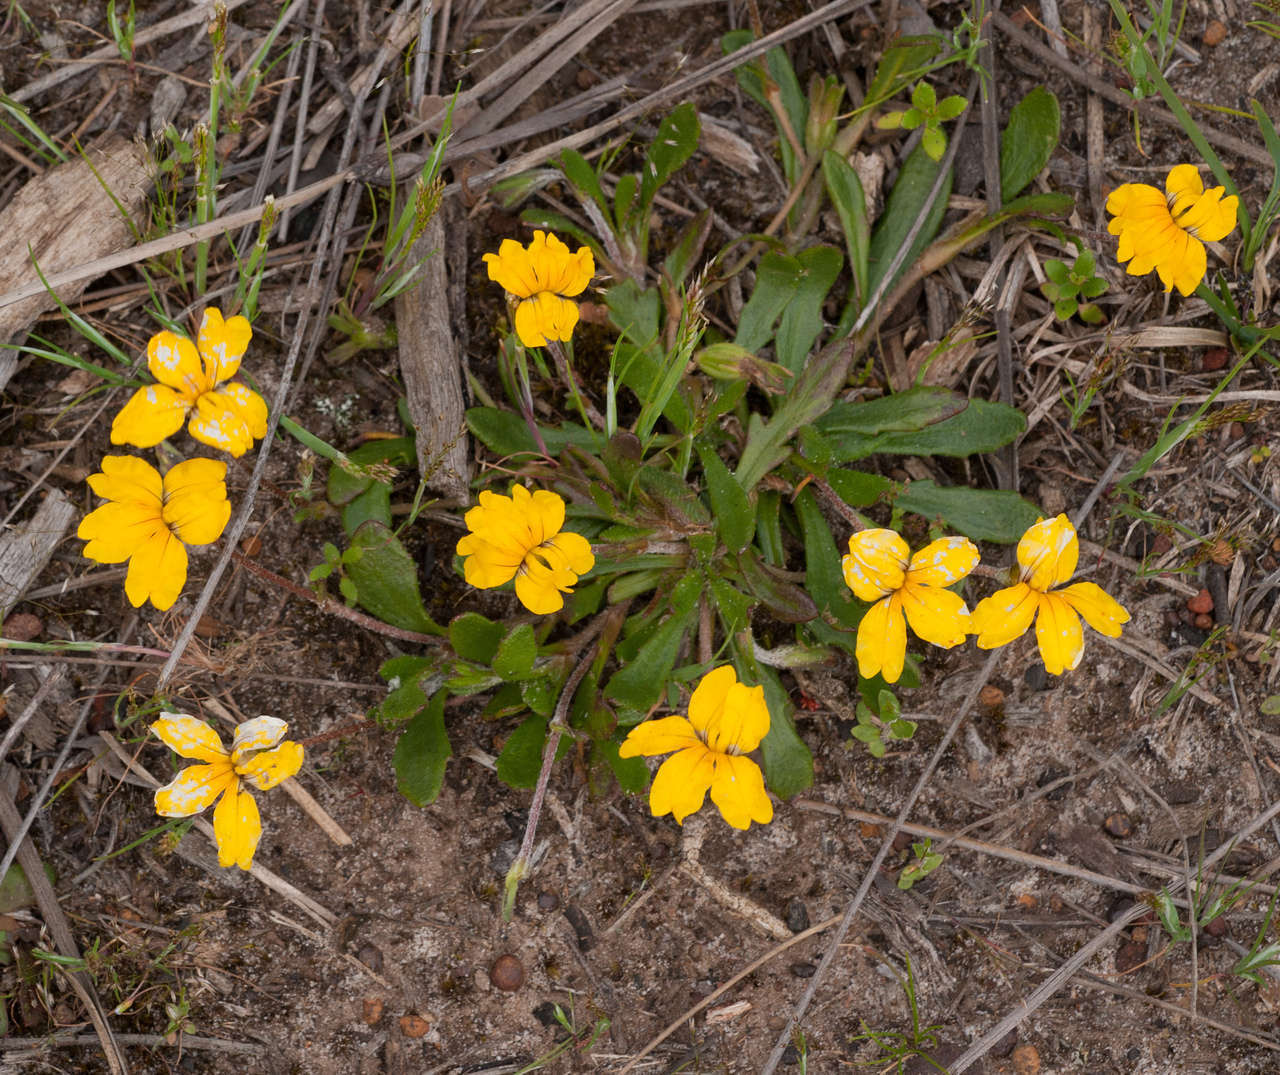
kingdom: Plantae
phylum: Tracheophyta
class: Magnoliopsida
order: Asterales
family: Goodeniaceae
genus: Goodenia
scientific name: Goodenia geniculata
